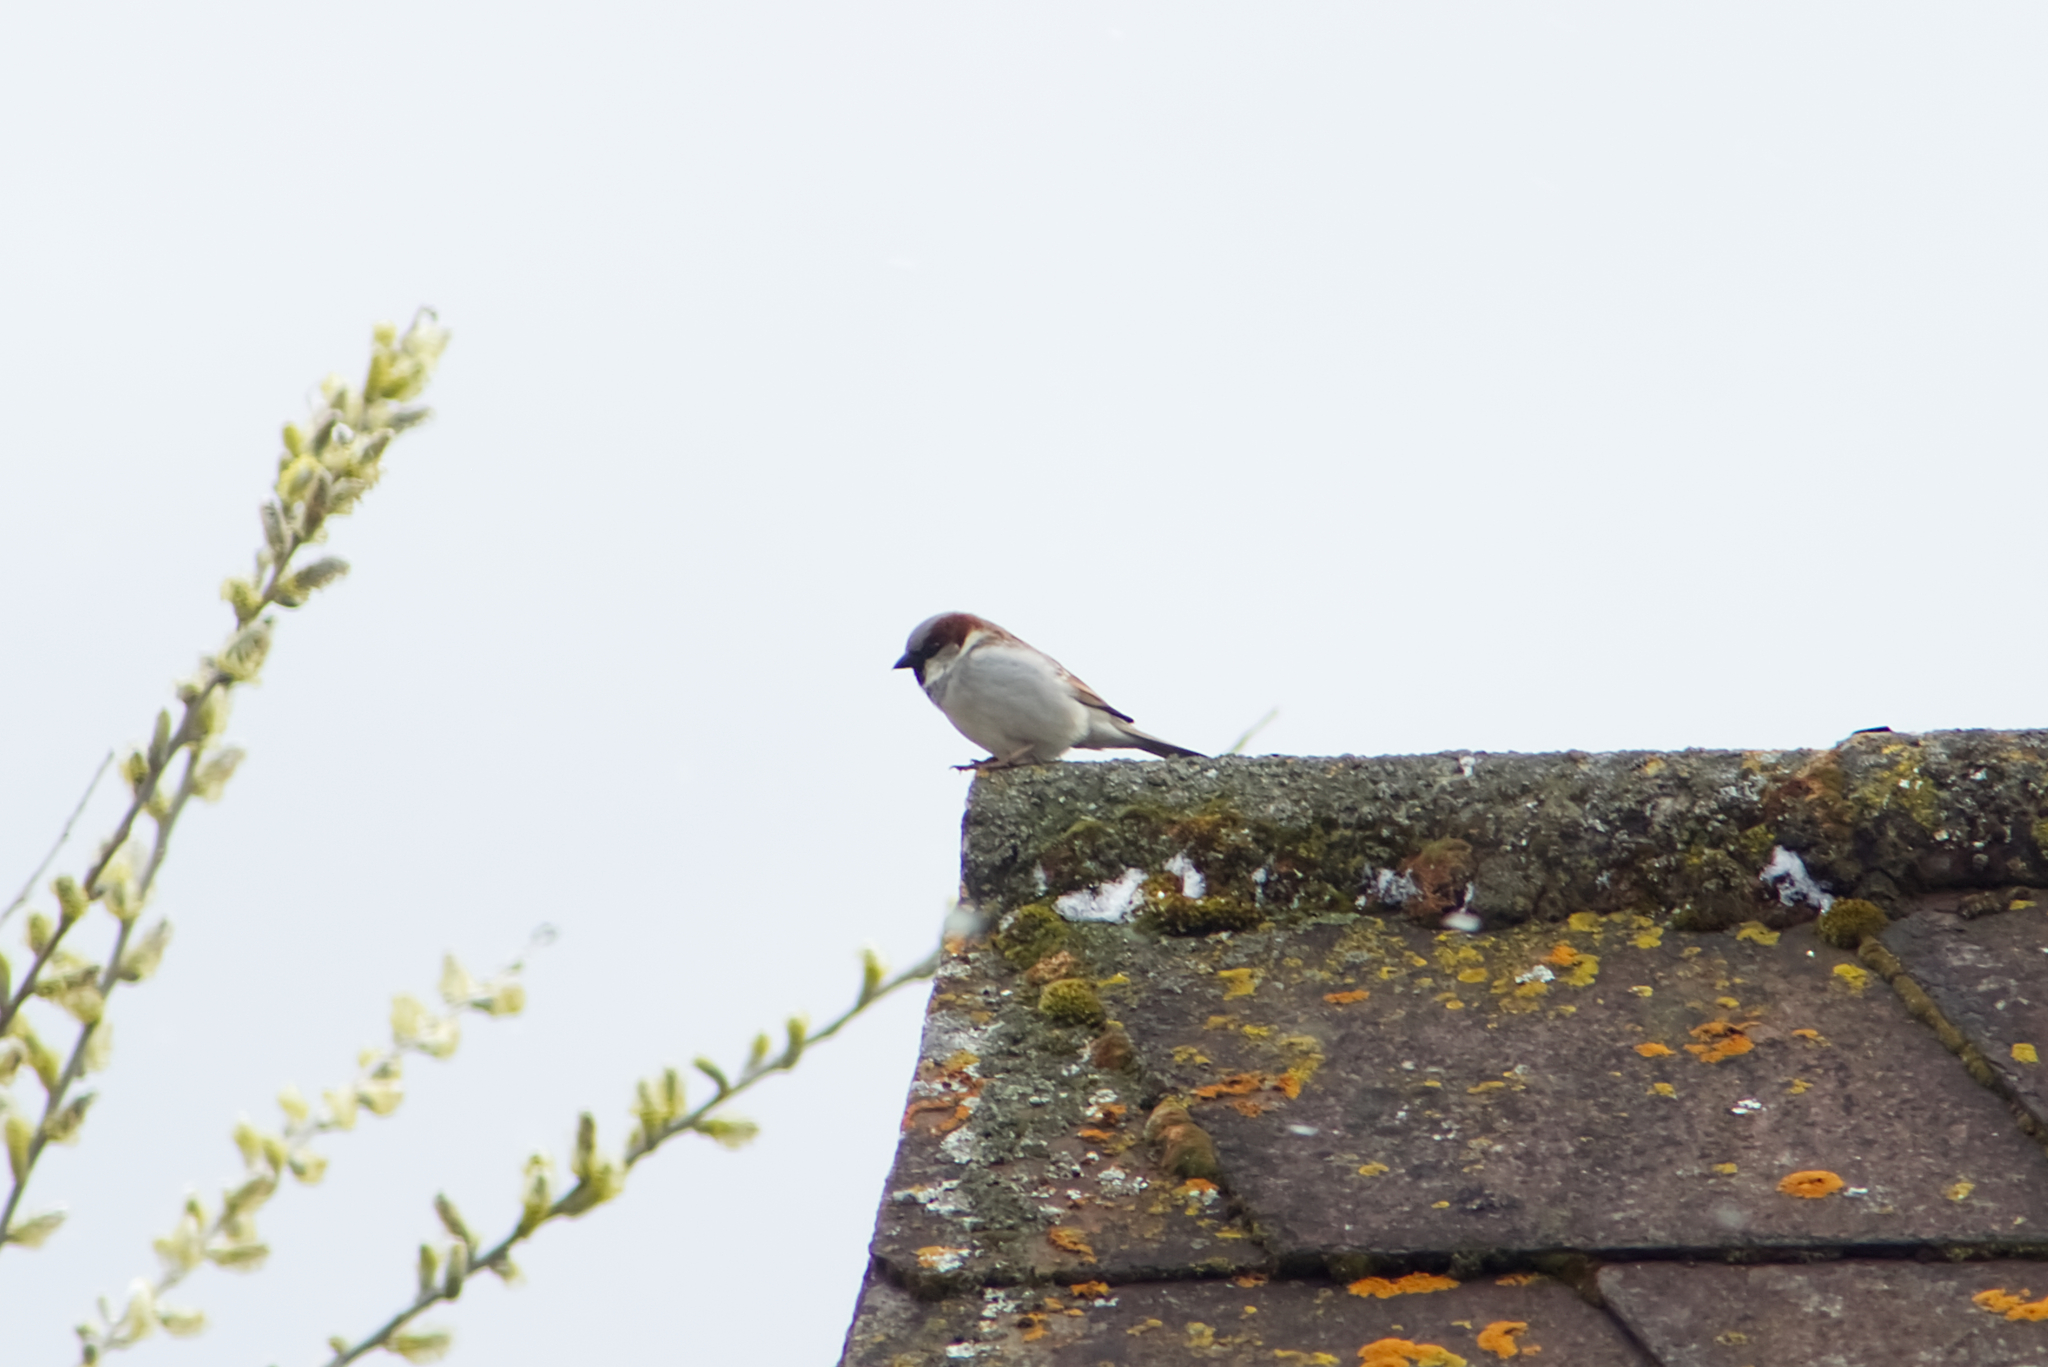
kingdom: Animalia
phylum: Chordata
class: Aves
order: Passeriformes
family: Passeridae
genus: Passer
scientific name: Passer domesticus
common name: House sparrow
